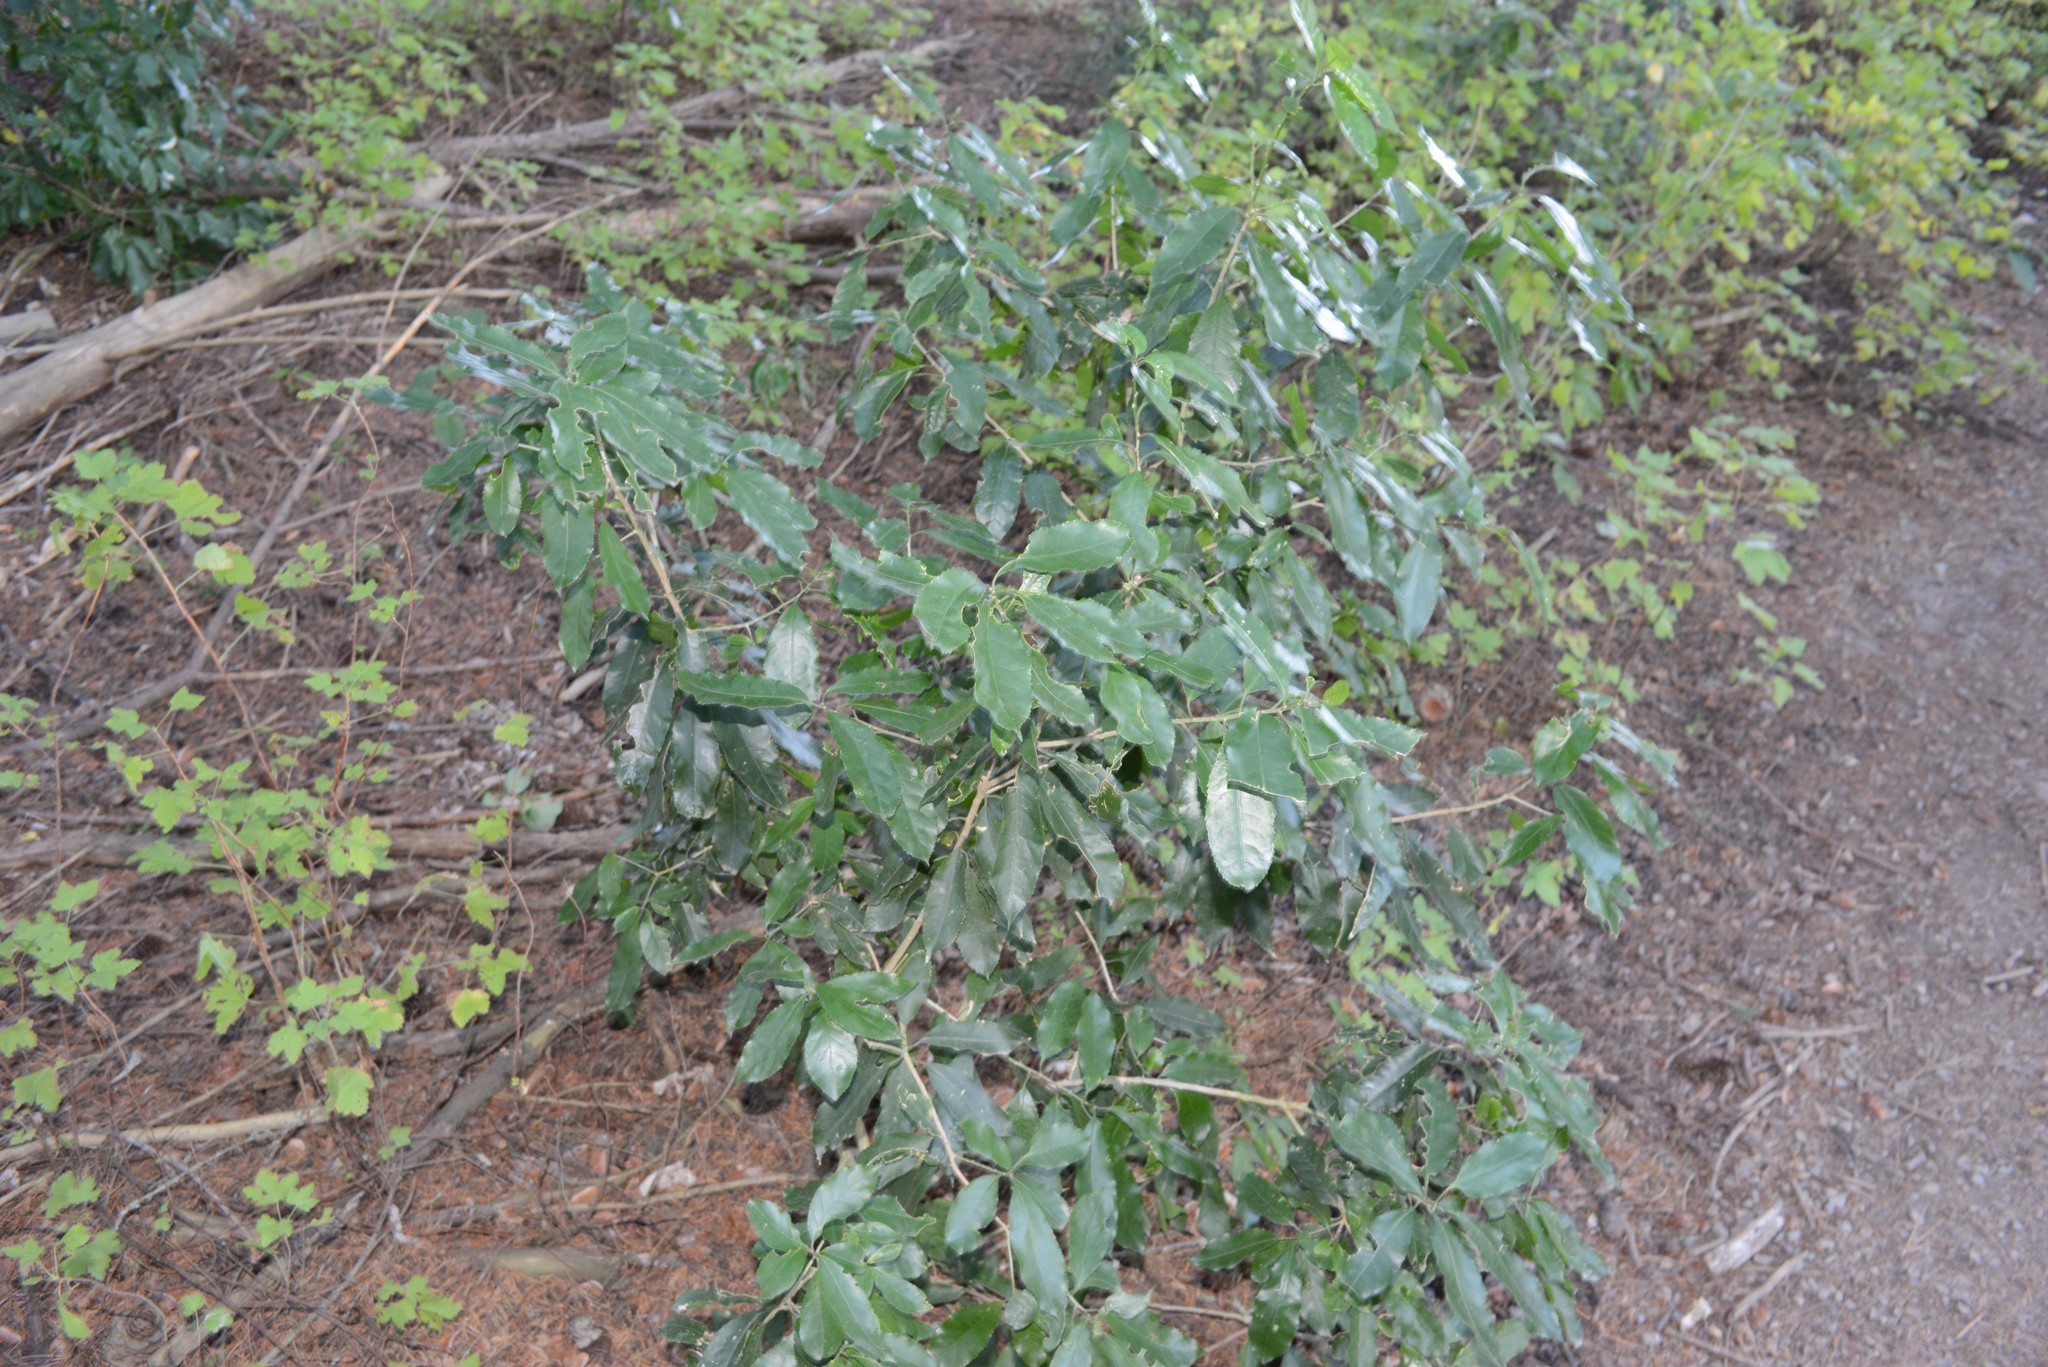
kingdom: Plantae
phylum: Tracheophyta
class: Magnoliopsida
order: Malpighiales
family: Violaceae
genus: Melicytus
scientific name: Melicytus ramiflorus
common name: Mahoe
